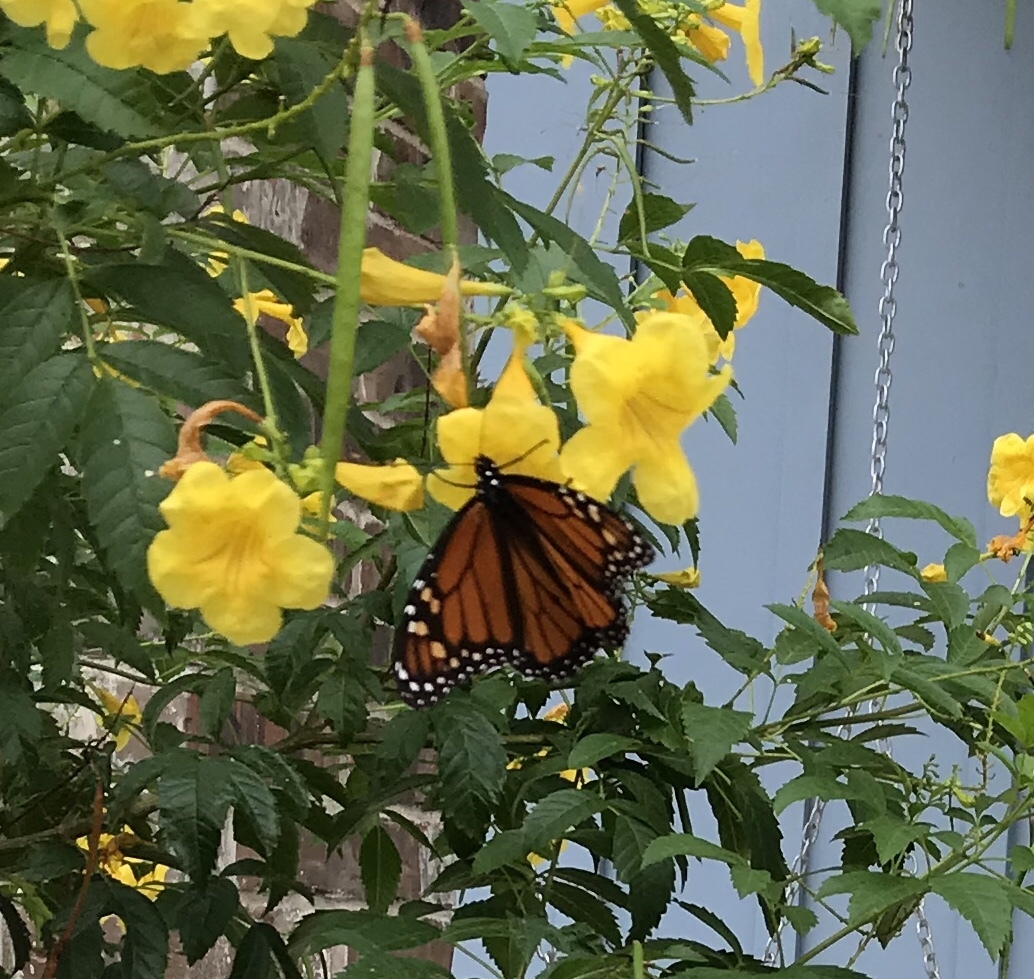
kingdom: Animalia
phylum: Arthropoda
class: Insecta
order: Lepidoptera
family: Nymphalidae
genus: Danaus
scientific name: Danaus plexippus
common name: Monarch
